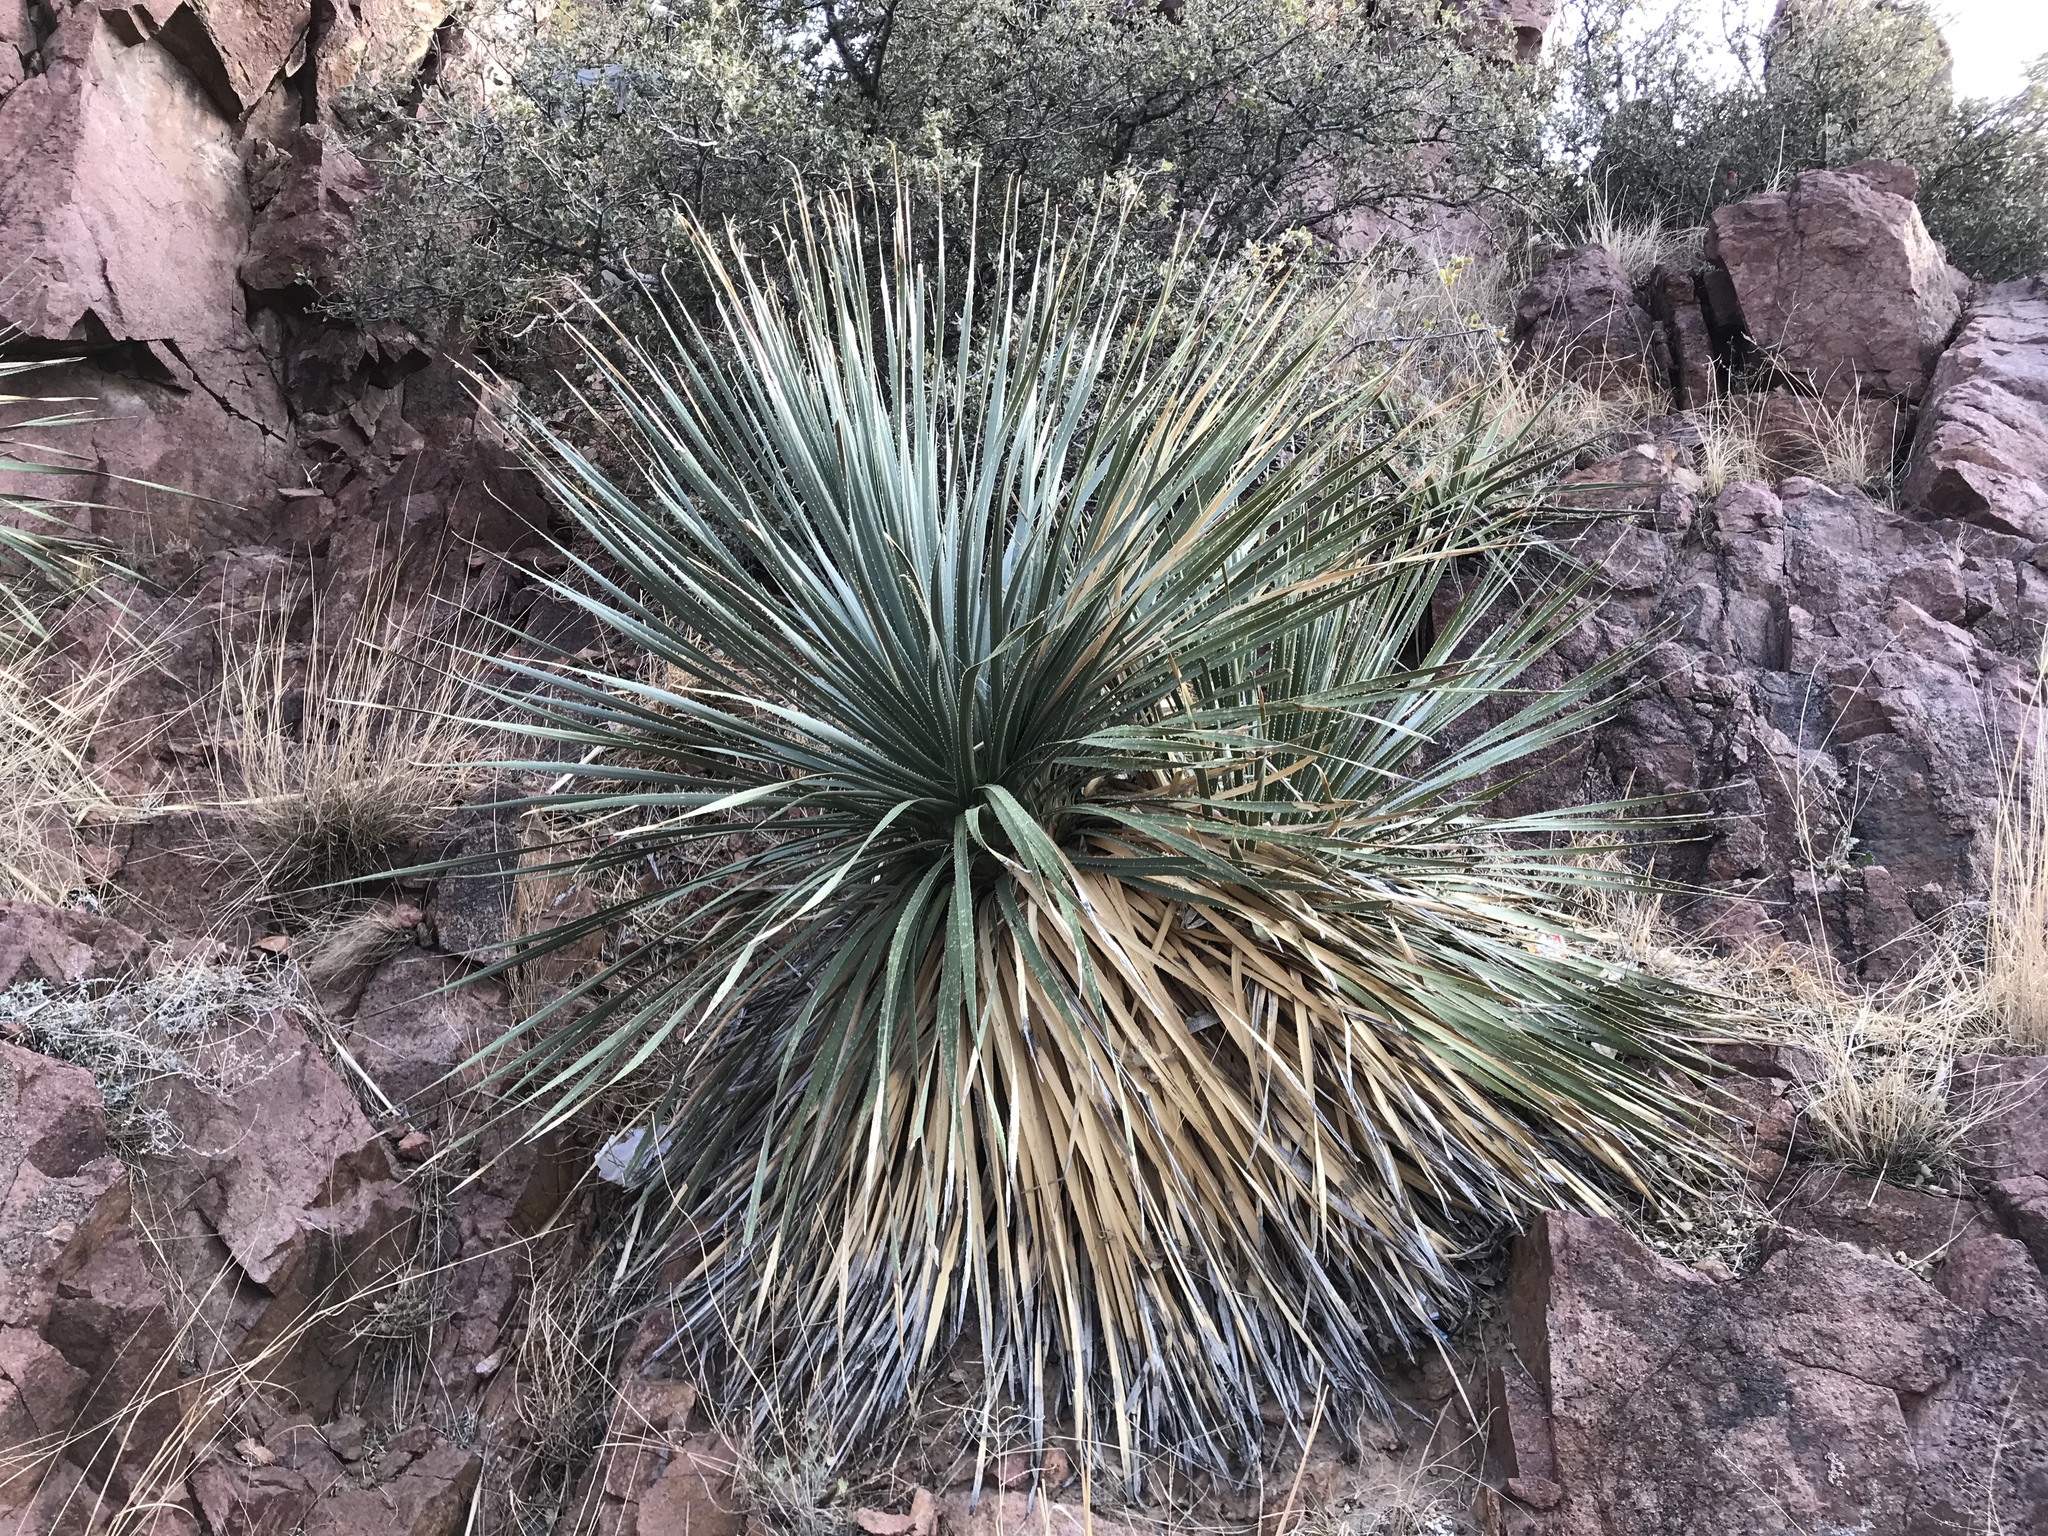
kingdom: Plantae
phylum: Tracheophyta
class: Liliopsida
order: Asparagales
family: Asparagaceae
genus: Dasylirion
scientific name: Dasylirion wheeleri
